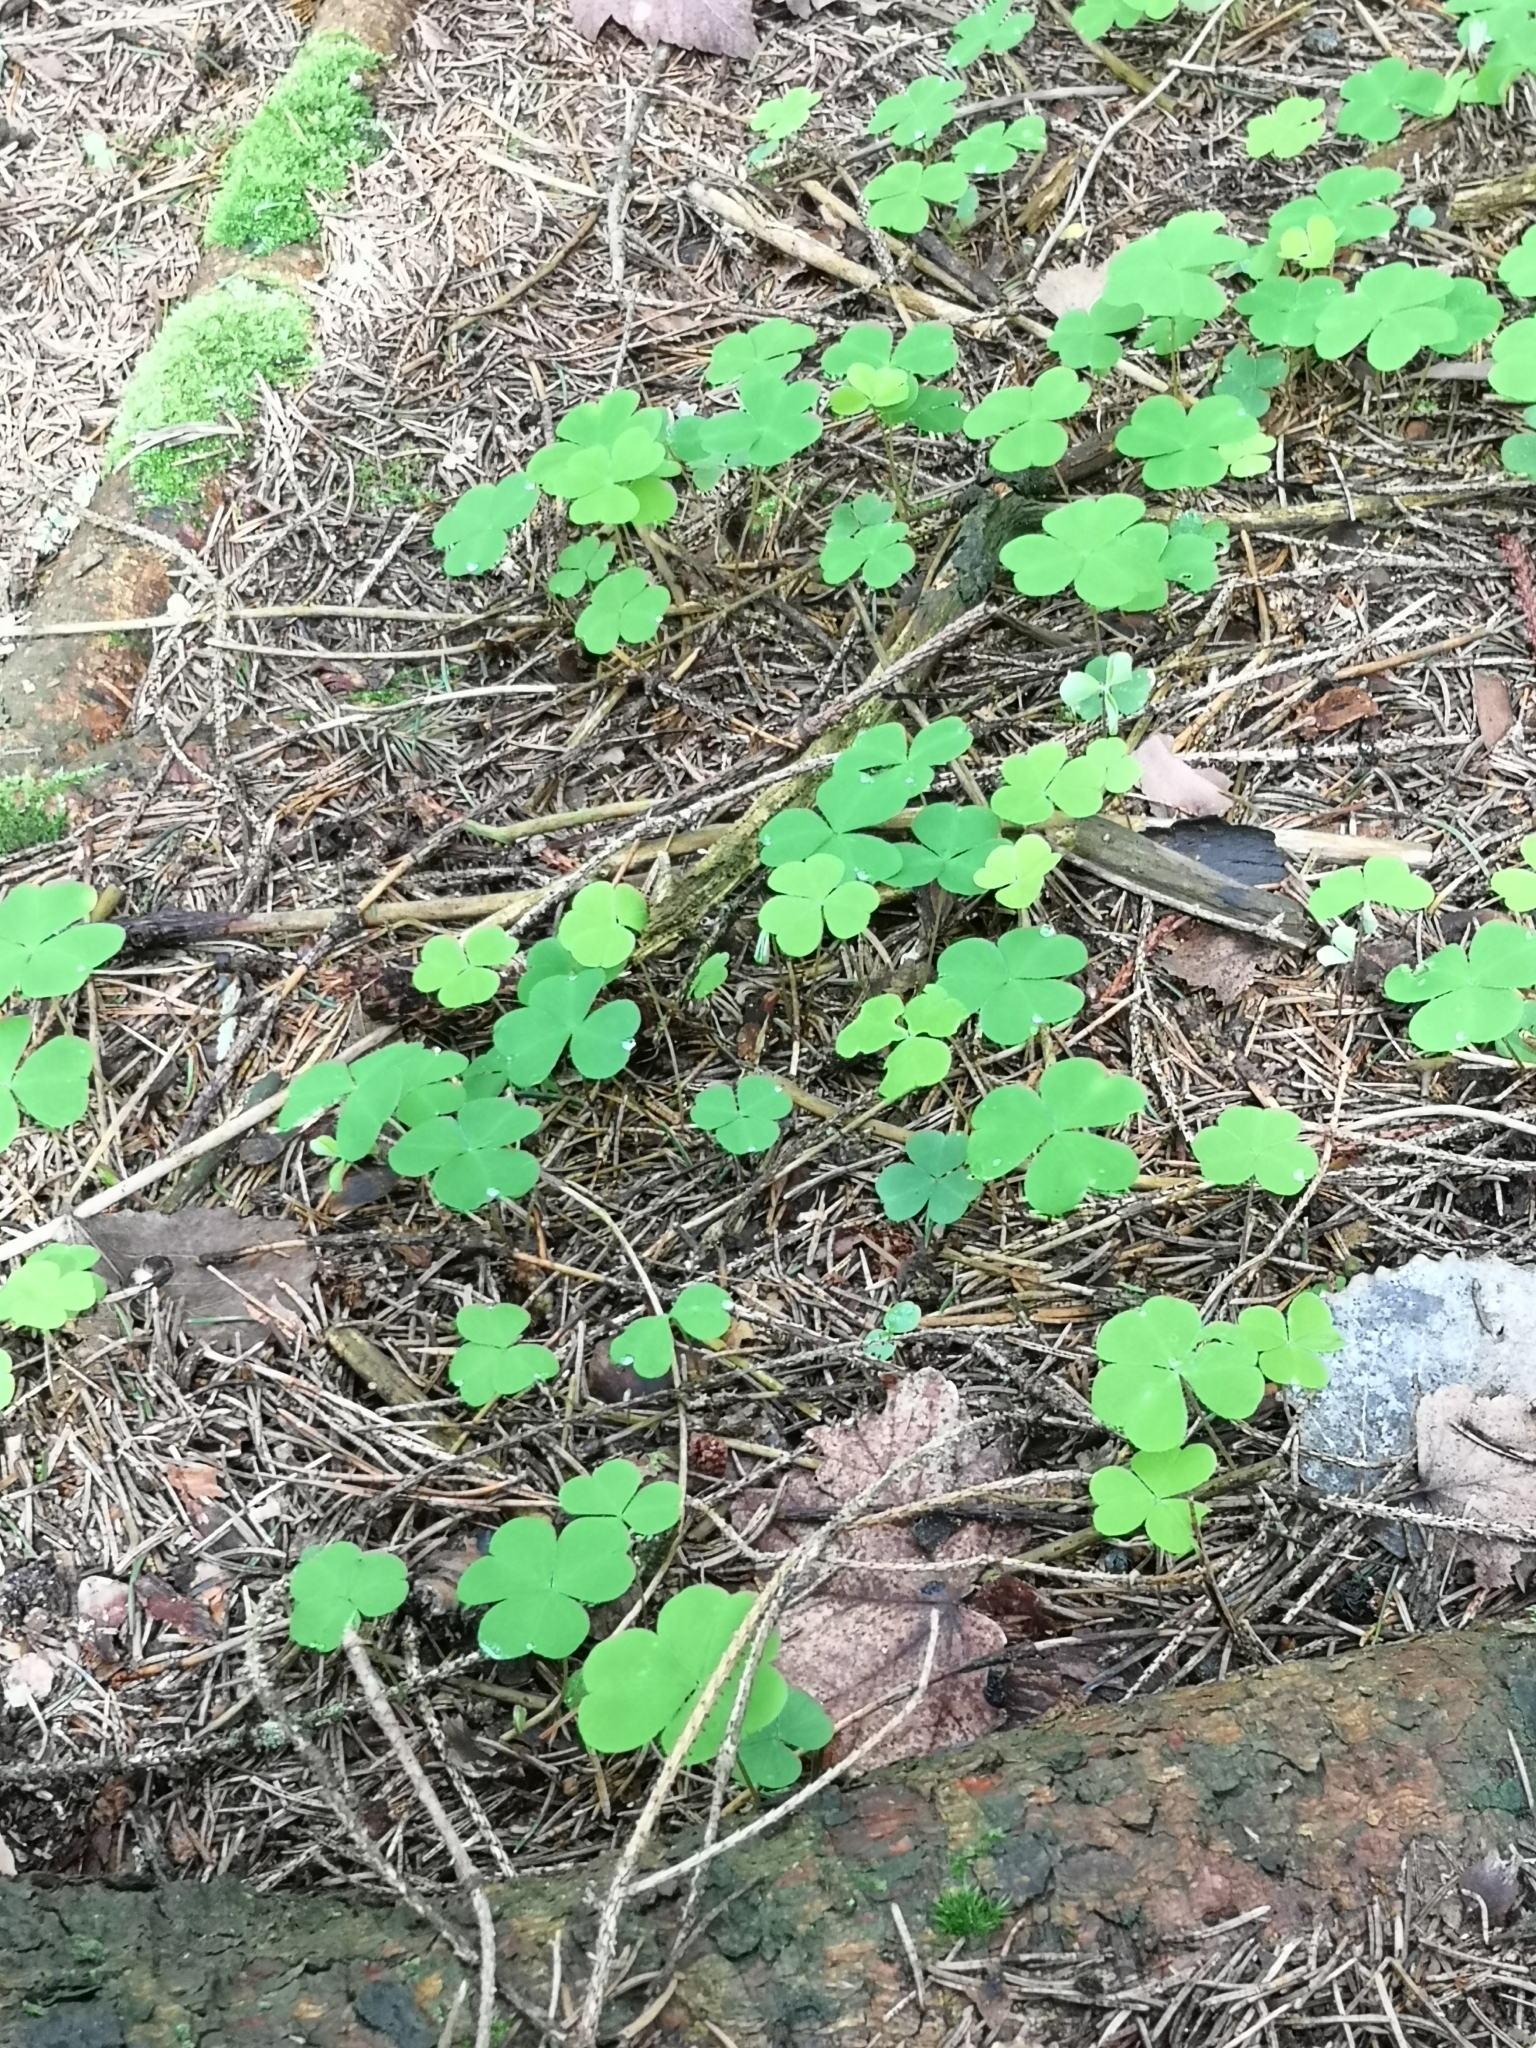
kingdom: Plantae
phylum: Tracheophyta
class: Magnoliopsida
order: Oxalidales
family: Oxalidaceae
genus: Oxalis
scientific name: Oxalis acetosella
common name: Wood-sorrel
